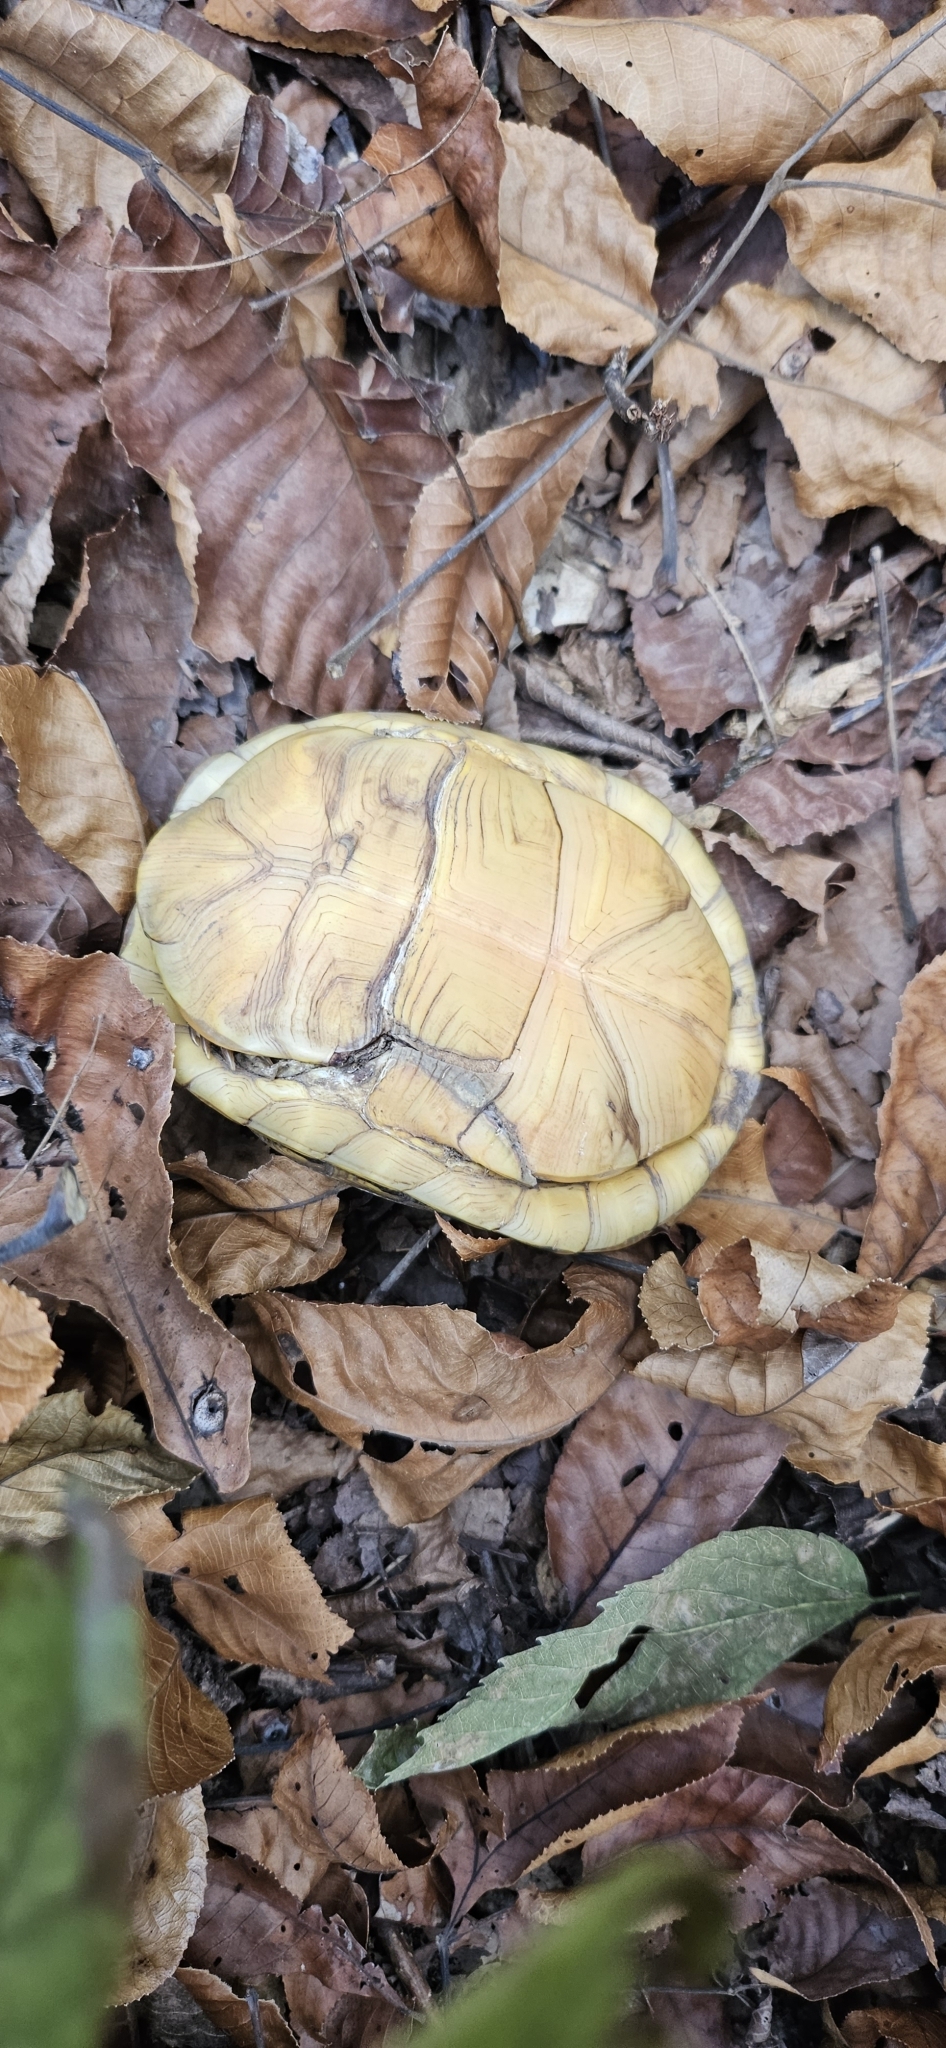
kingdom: Animalia
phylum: Chordata
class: Testudines
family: Emydidae
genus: Terrapene
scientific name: Terrapene carolina
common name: Common box turtle
